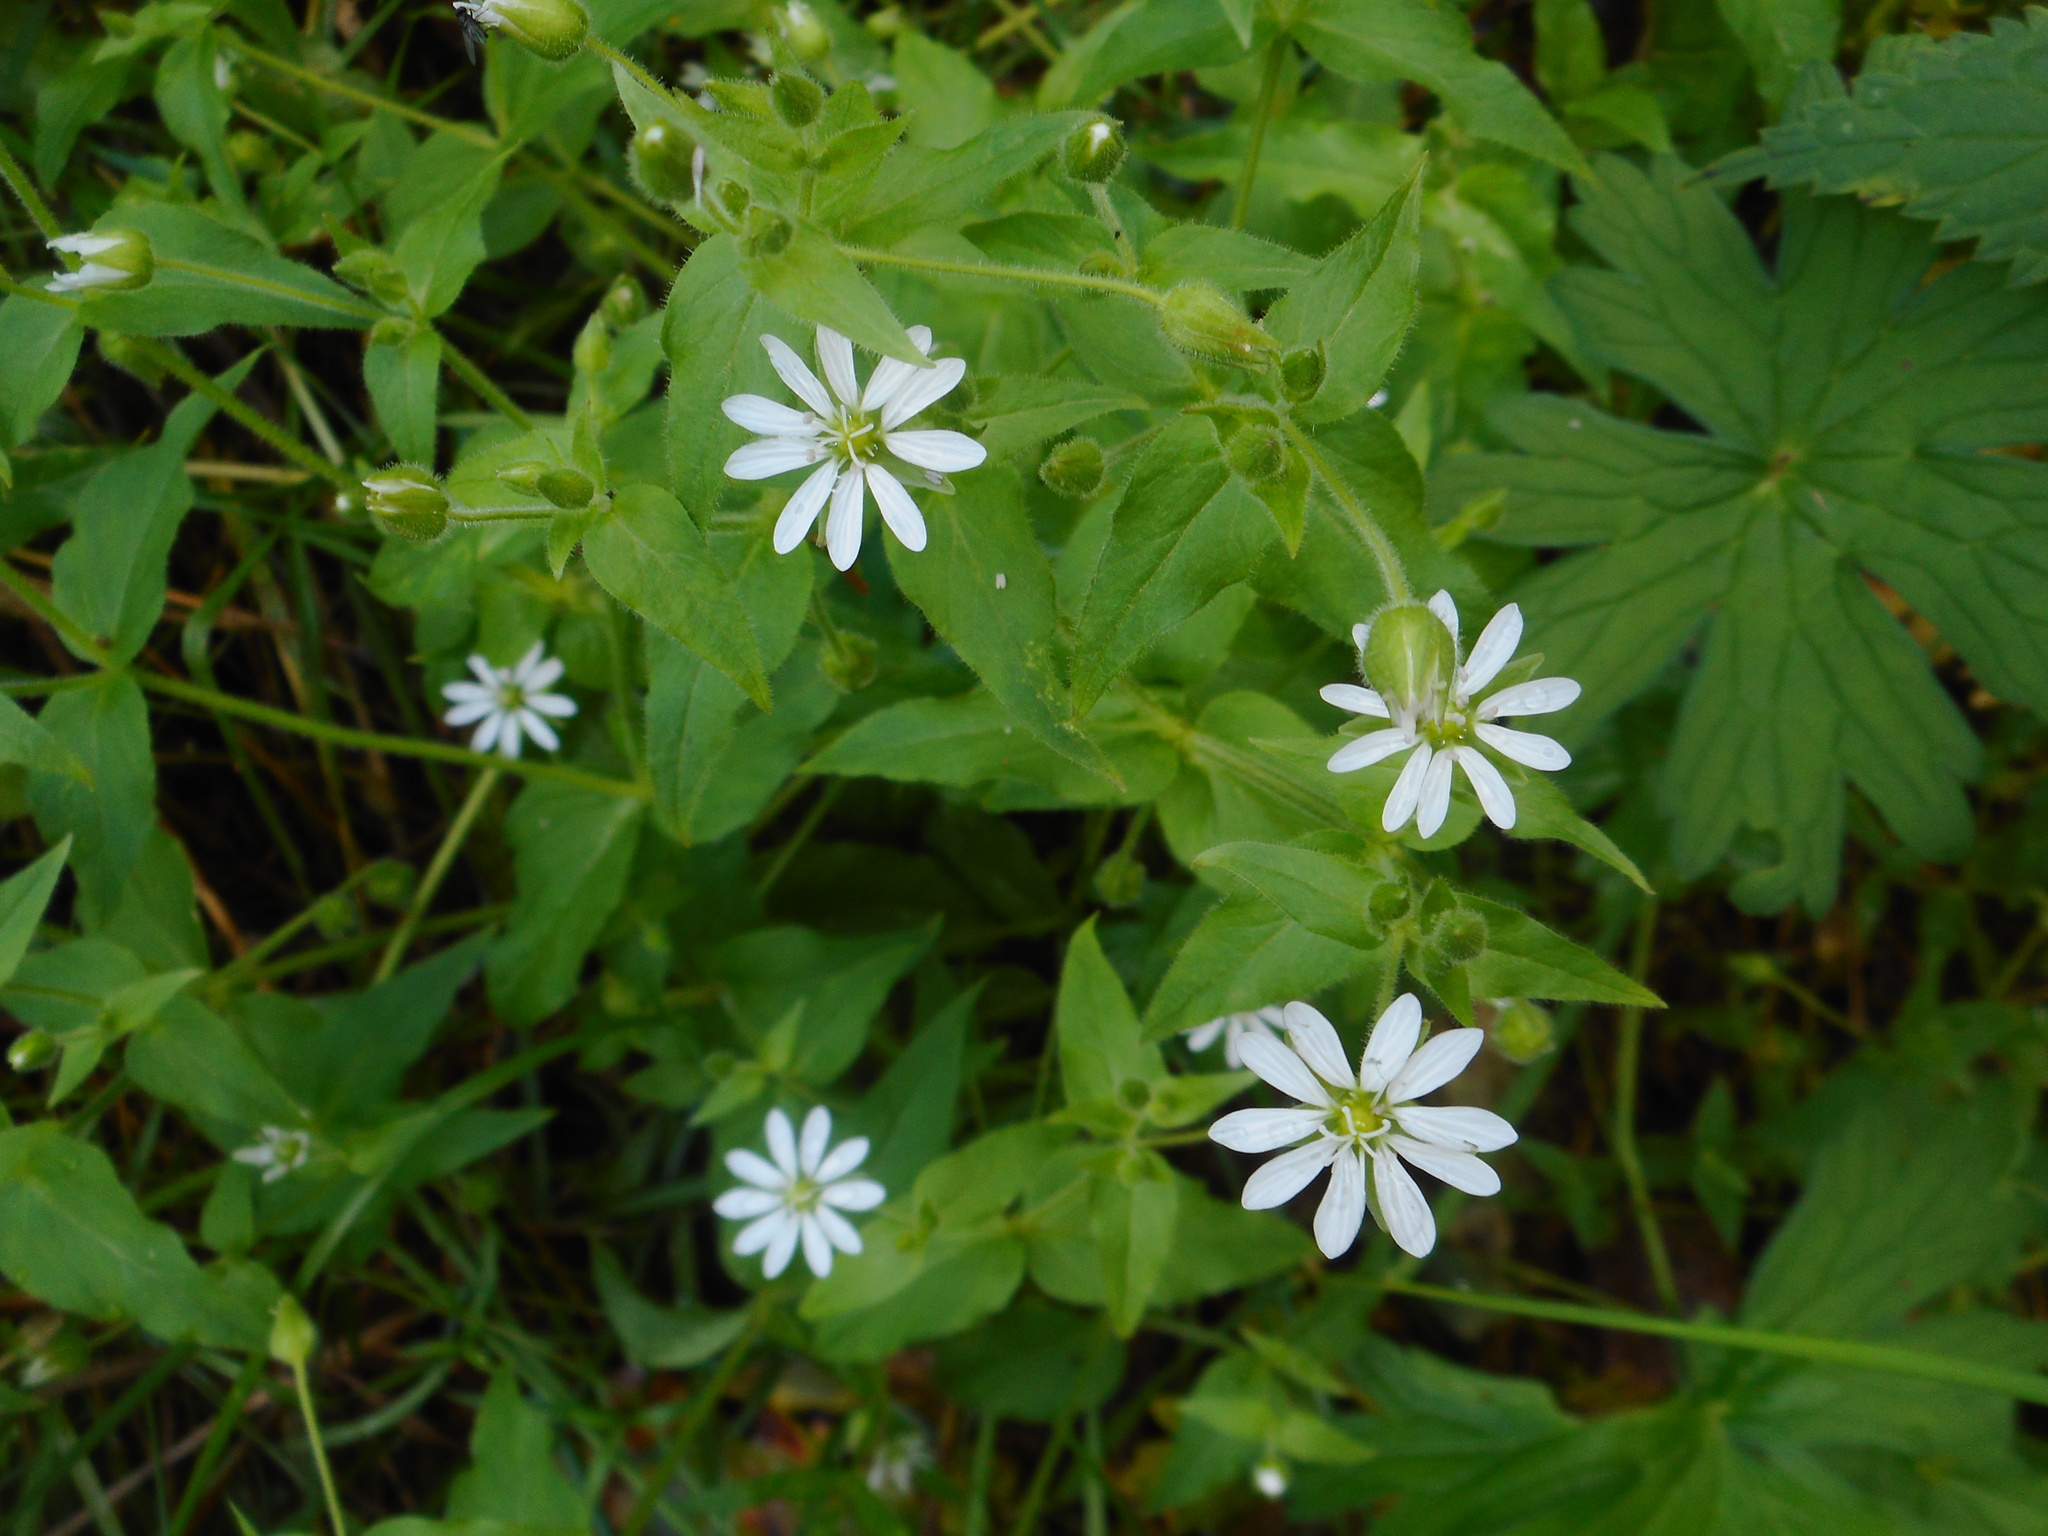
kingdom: Plantae
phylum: Tracheophyta
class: Magnoliopsida
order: Caryophyllales
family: Caryophyllaceae
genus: Stellaria
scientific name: Stellaria aquatica
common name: Water chickweed
